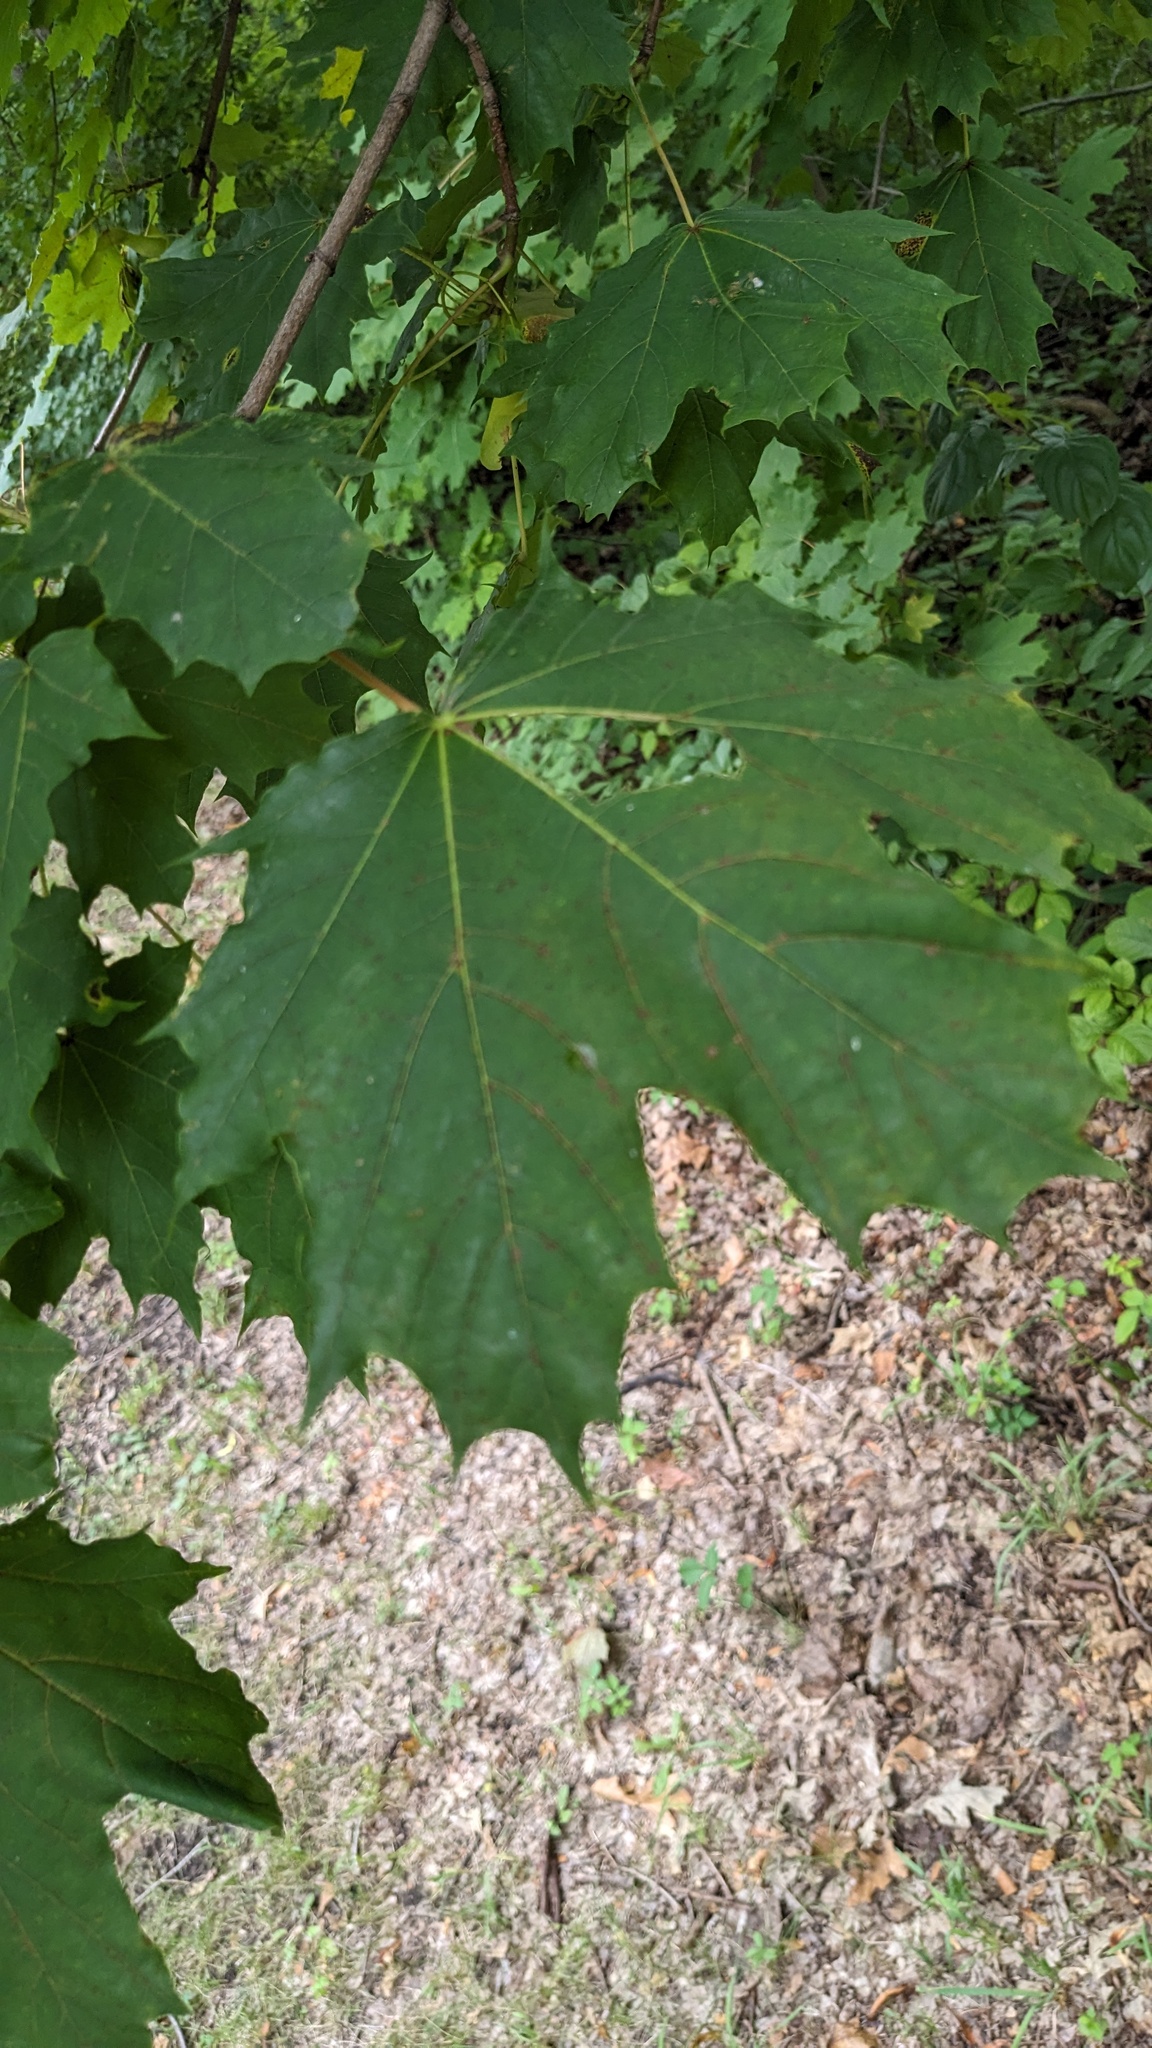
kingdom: Plantae
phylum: Tracheophyta
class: Magnoliopsida
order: Sapindales
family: Sapindaceae
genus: Acer
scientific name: Acer platanoides
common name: Norway maple
